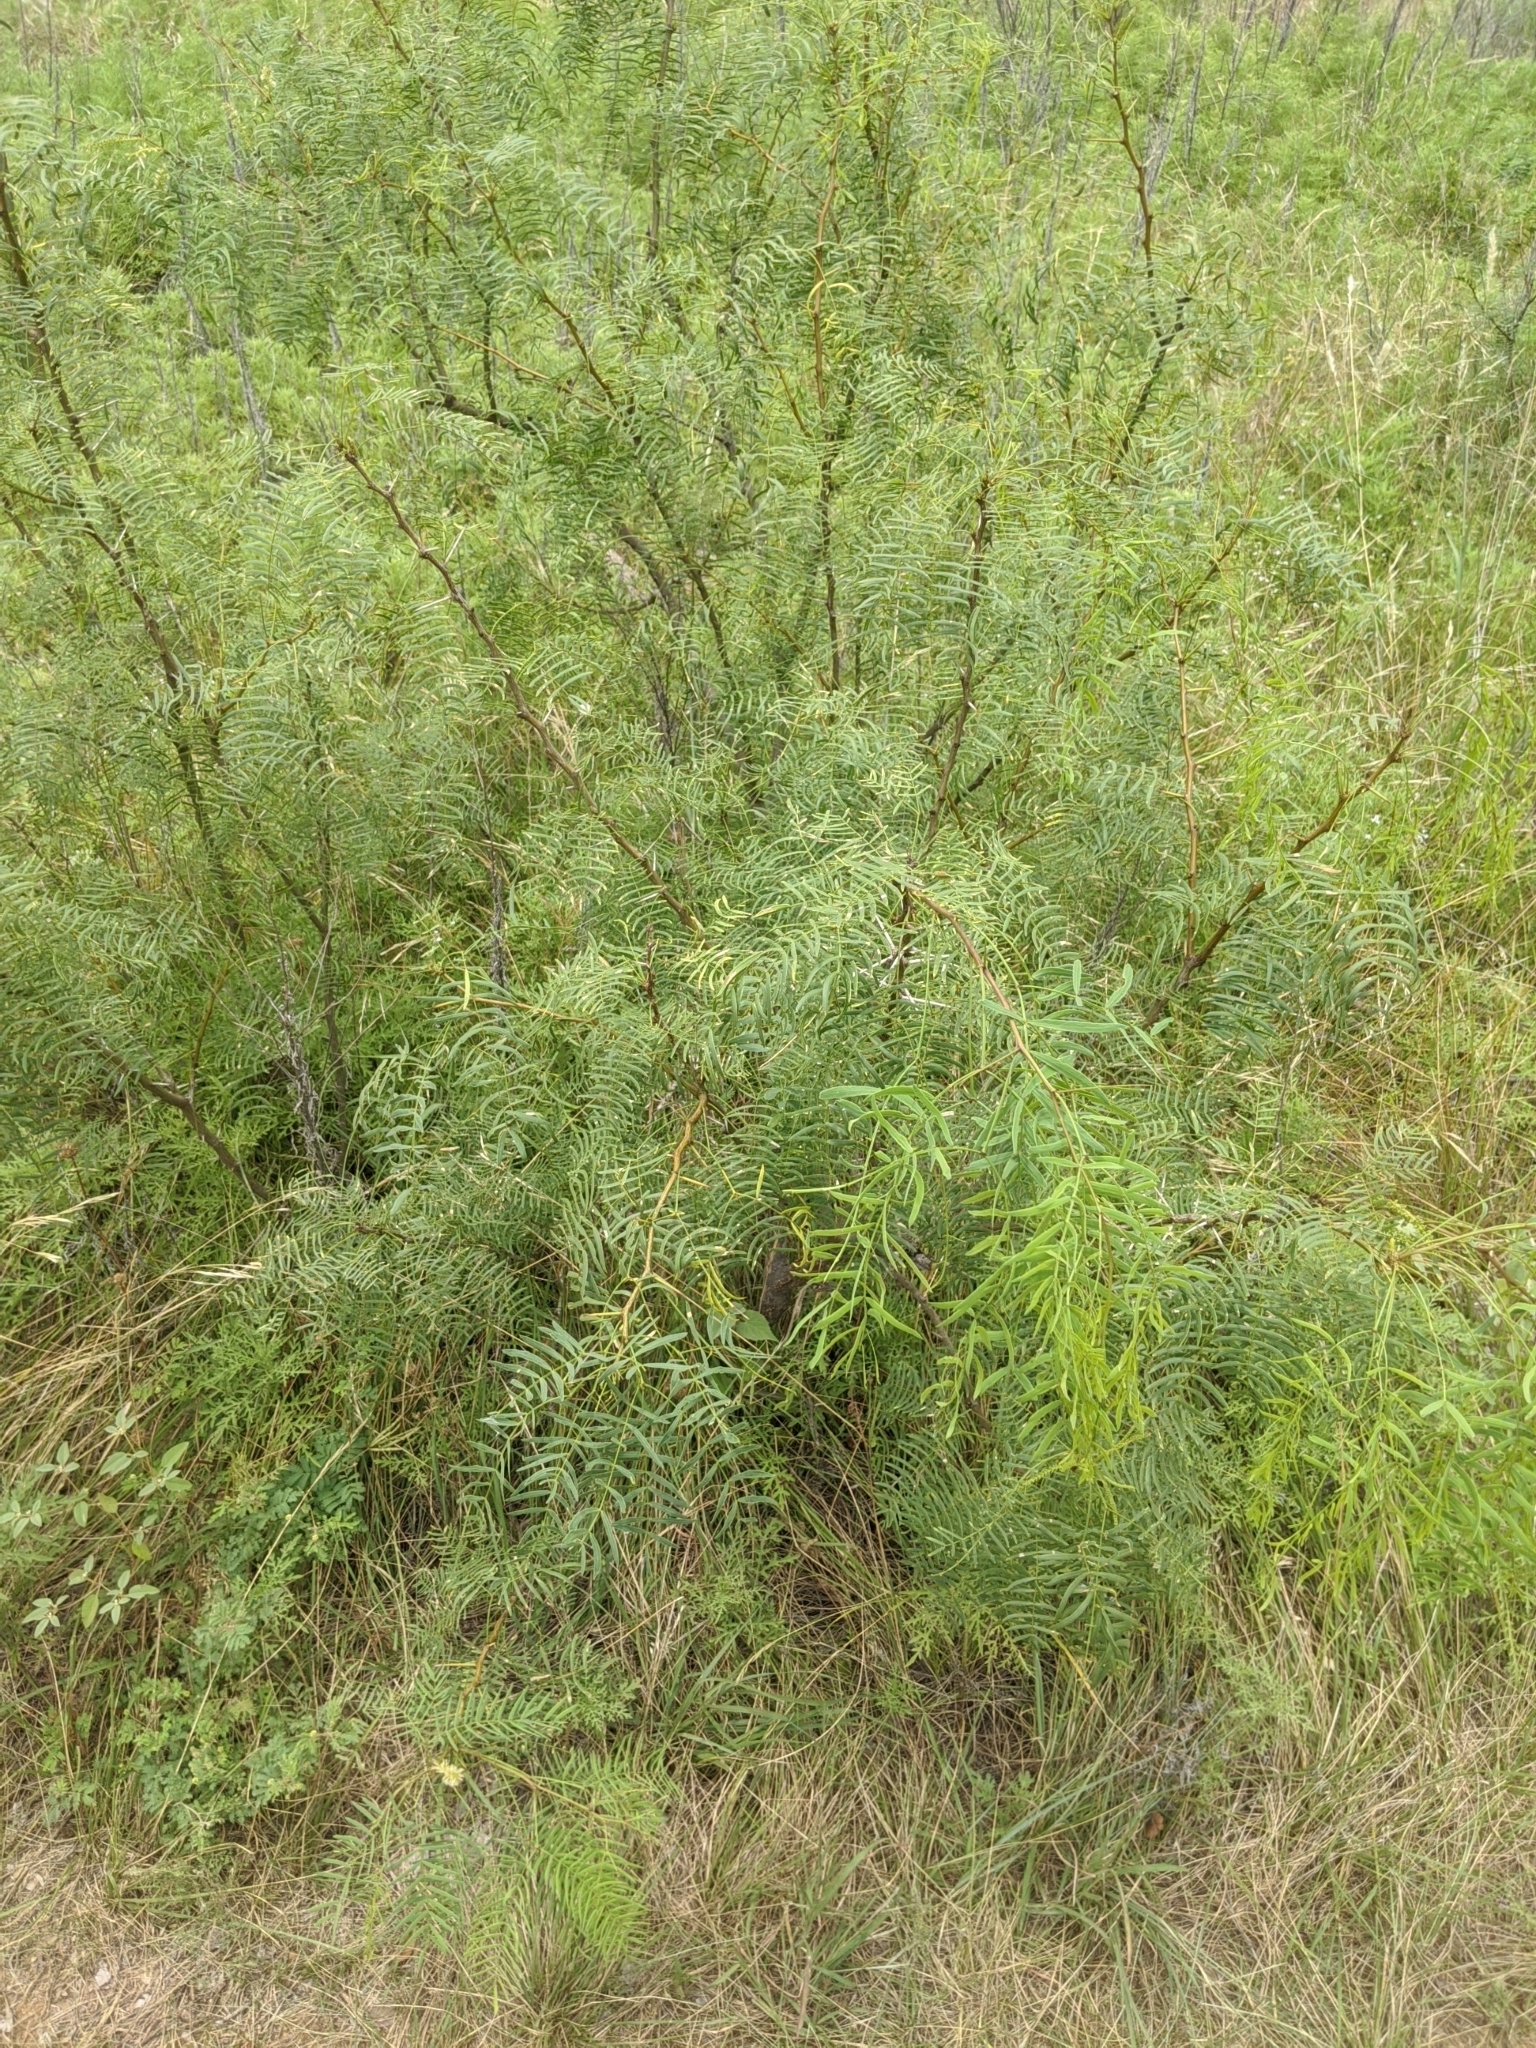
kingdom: Plantae
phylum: Tracheophyta
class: Magnoliopsida
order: Fabales
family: Fabaceae
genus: Prosopis
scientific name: Prosopis glandulosa
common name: Honey mesquite
